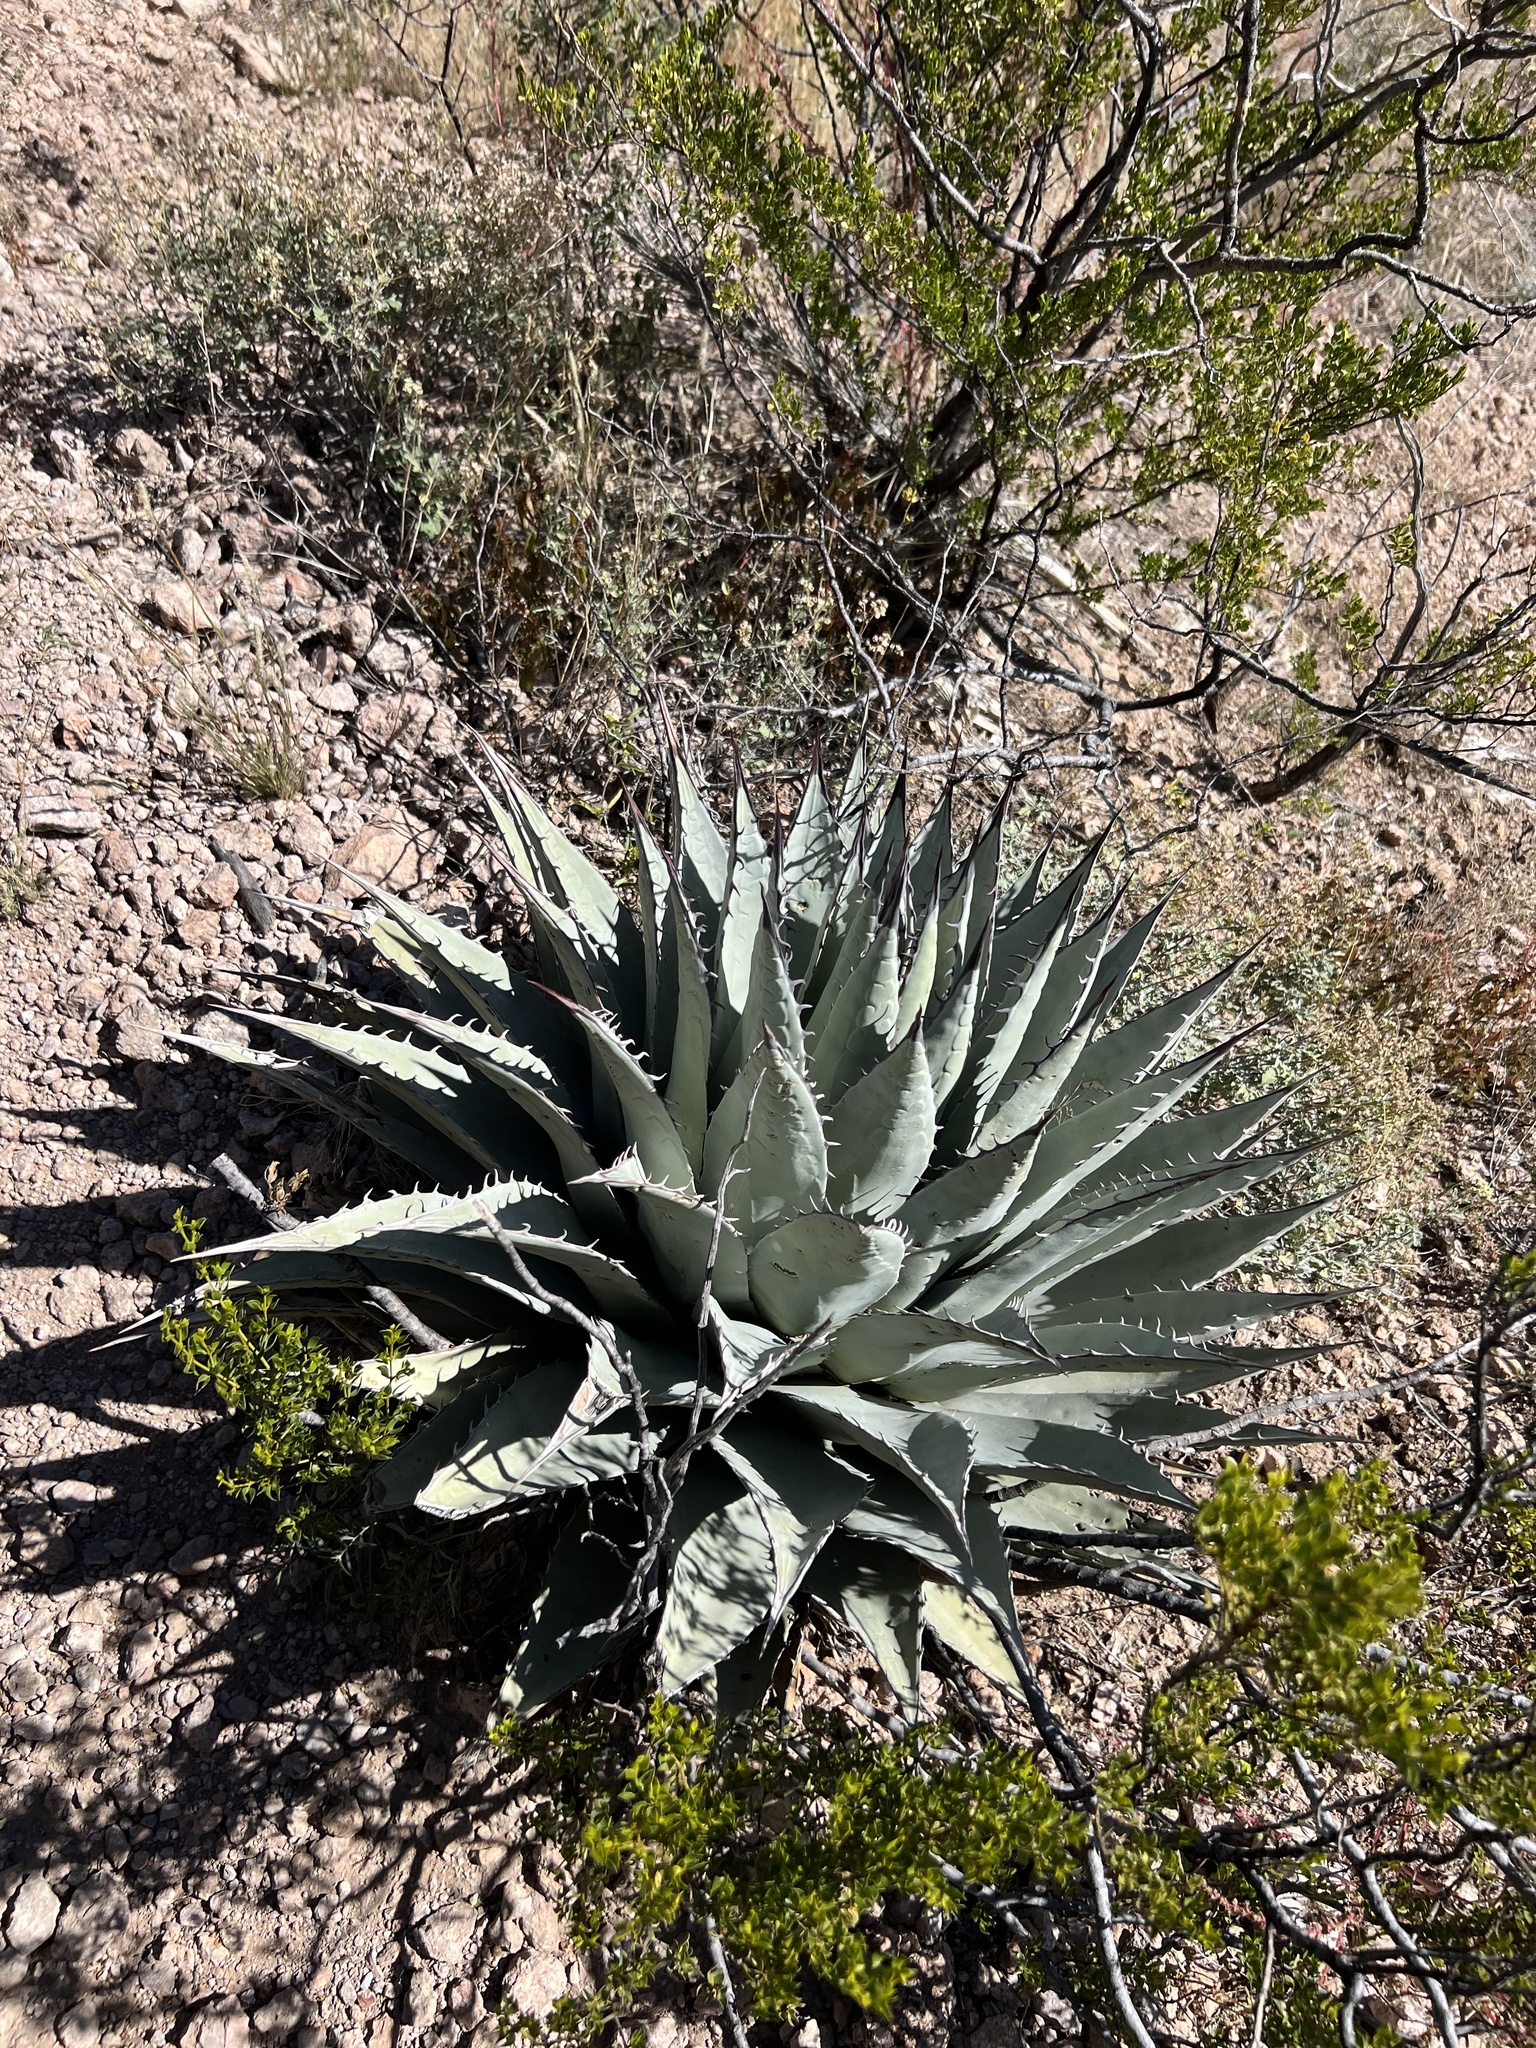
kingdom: Plantae
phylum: Tracheophyta
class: Liliopsida
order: Asparagales
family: Asparagaceae
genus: Agave
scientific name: Agave parryi
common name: Parry's agave
